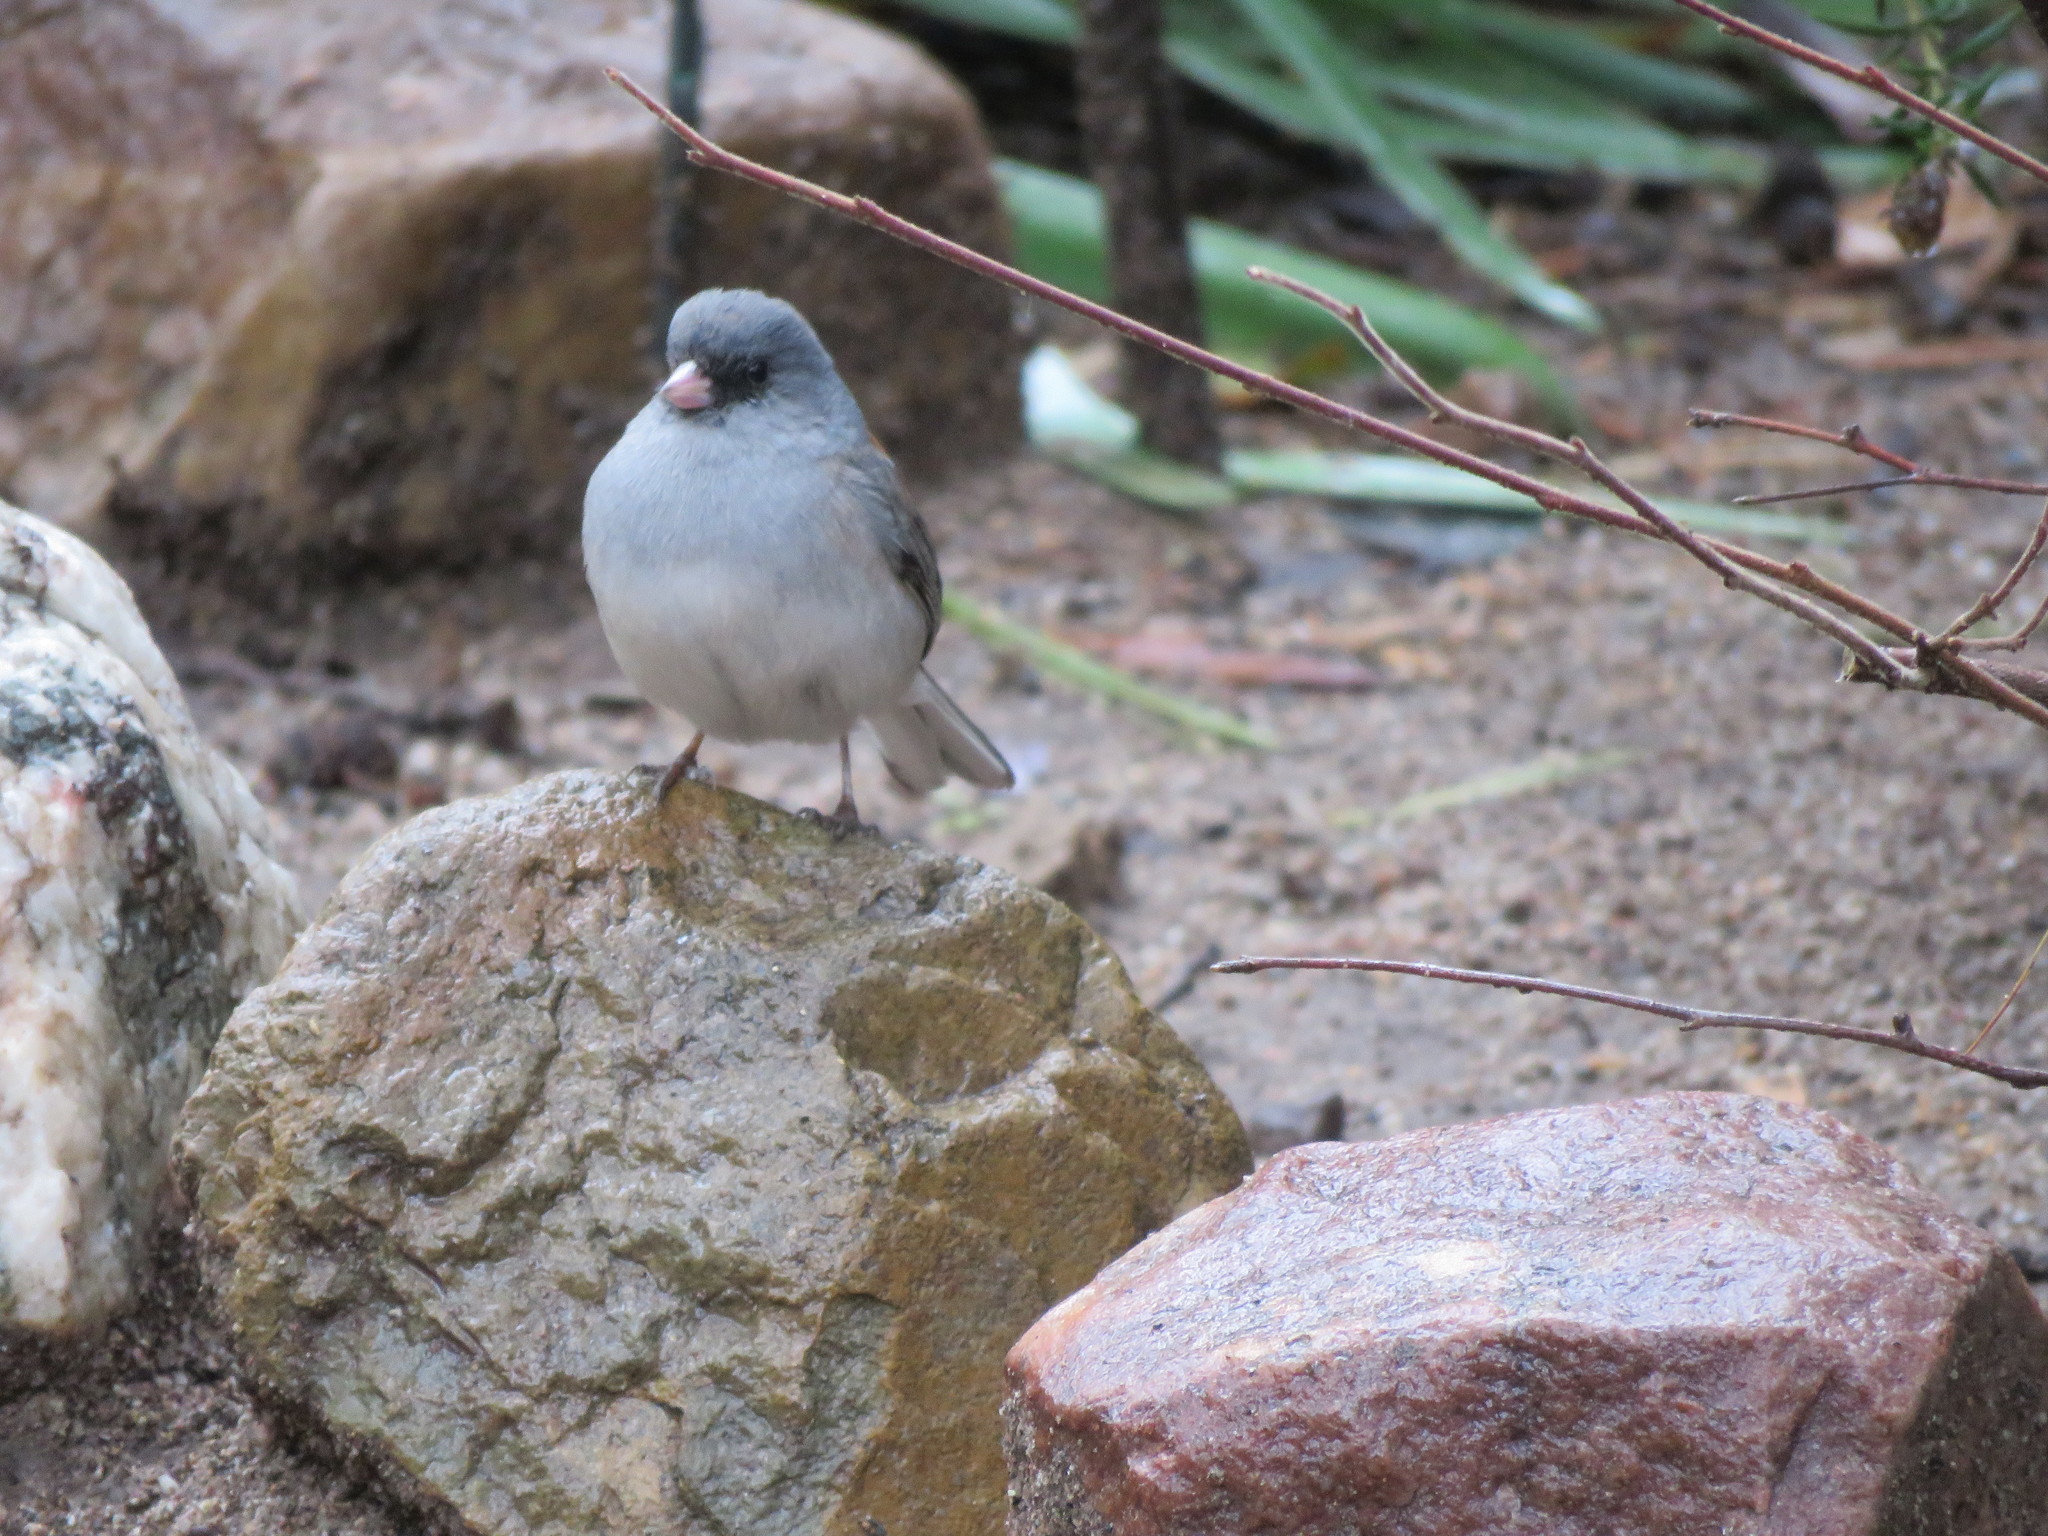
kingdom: Animalia
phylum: Chordata
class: Aves
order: Passeriformes
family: Passerellidae
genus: Junco
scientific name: Junco hyemalis
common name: Dark-eyed junco
